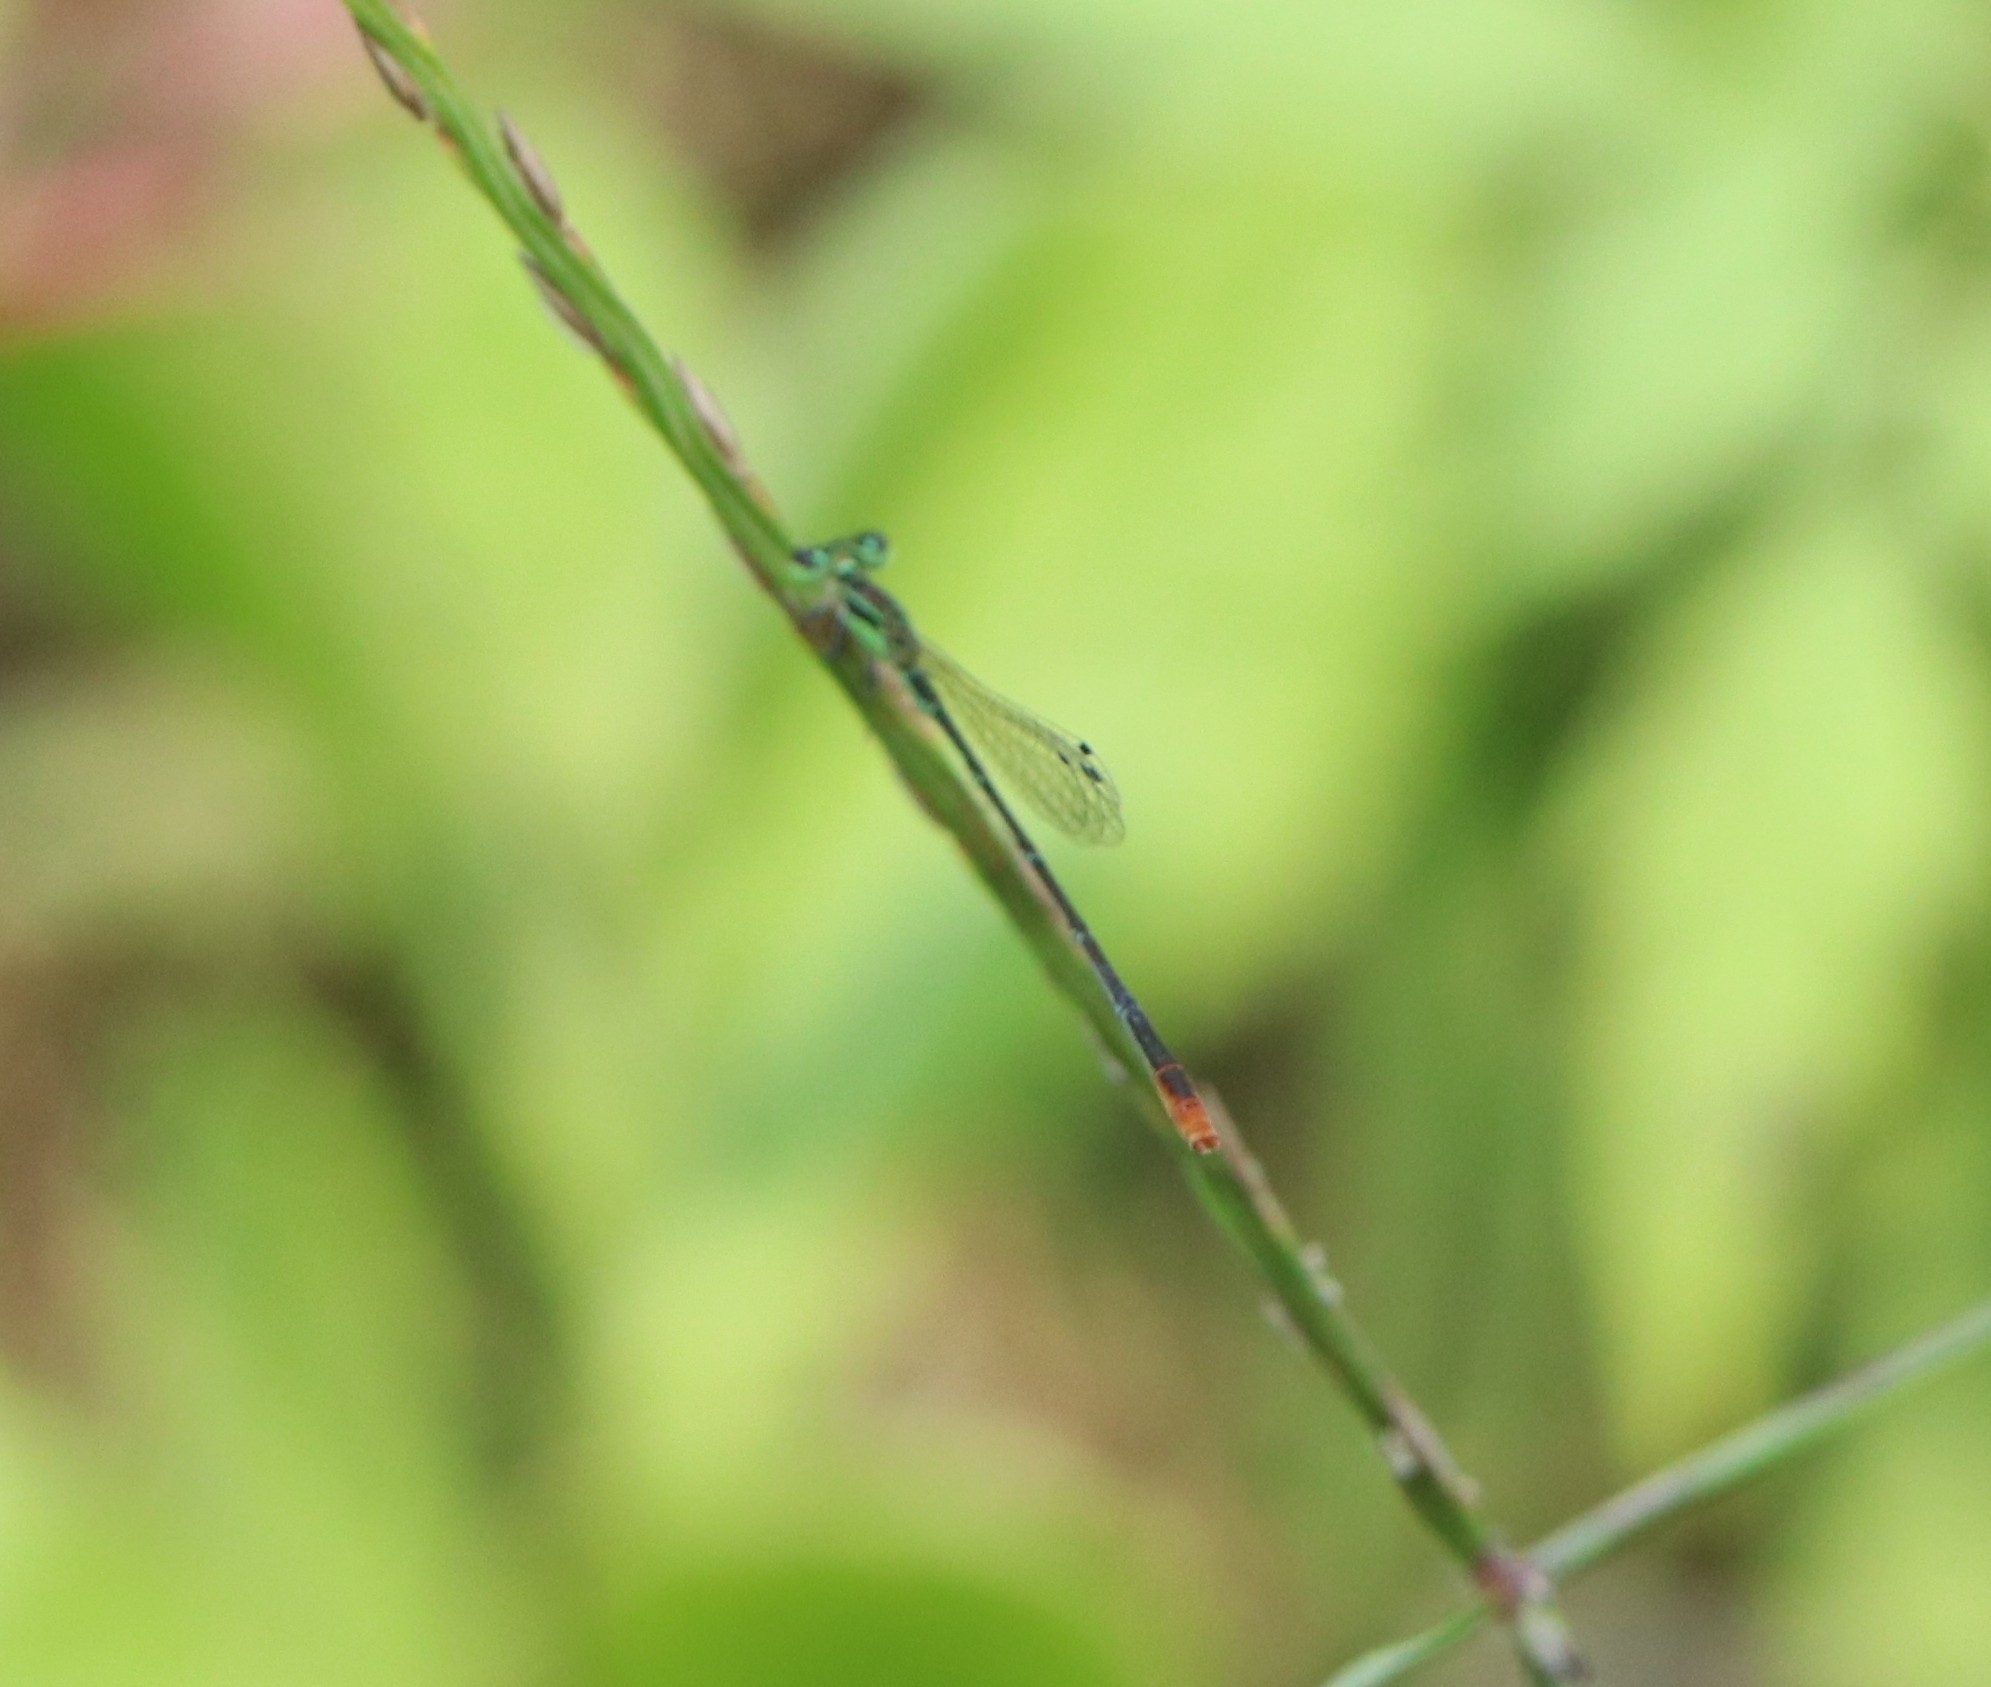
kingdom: Animalia
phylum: Arthropoda
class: Insecta
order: Odonata
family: Coenagrionidae
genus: Agriocnemis
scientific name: Agriocnemis pygmaea
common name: Pygmy wisp
